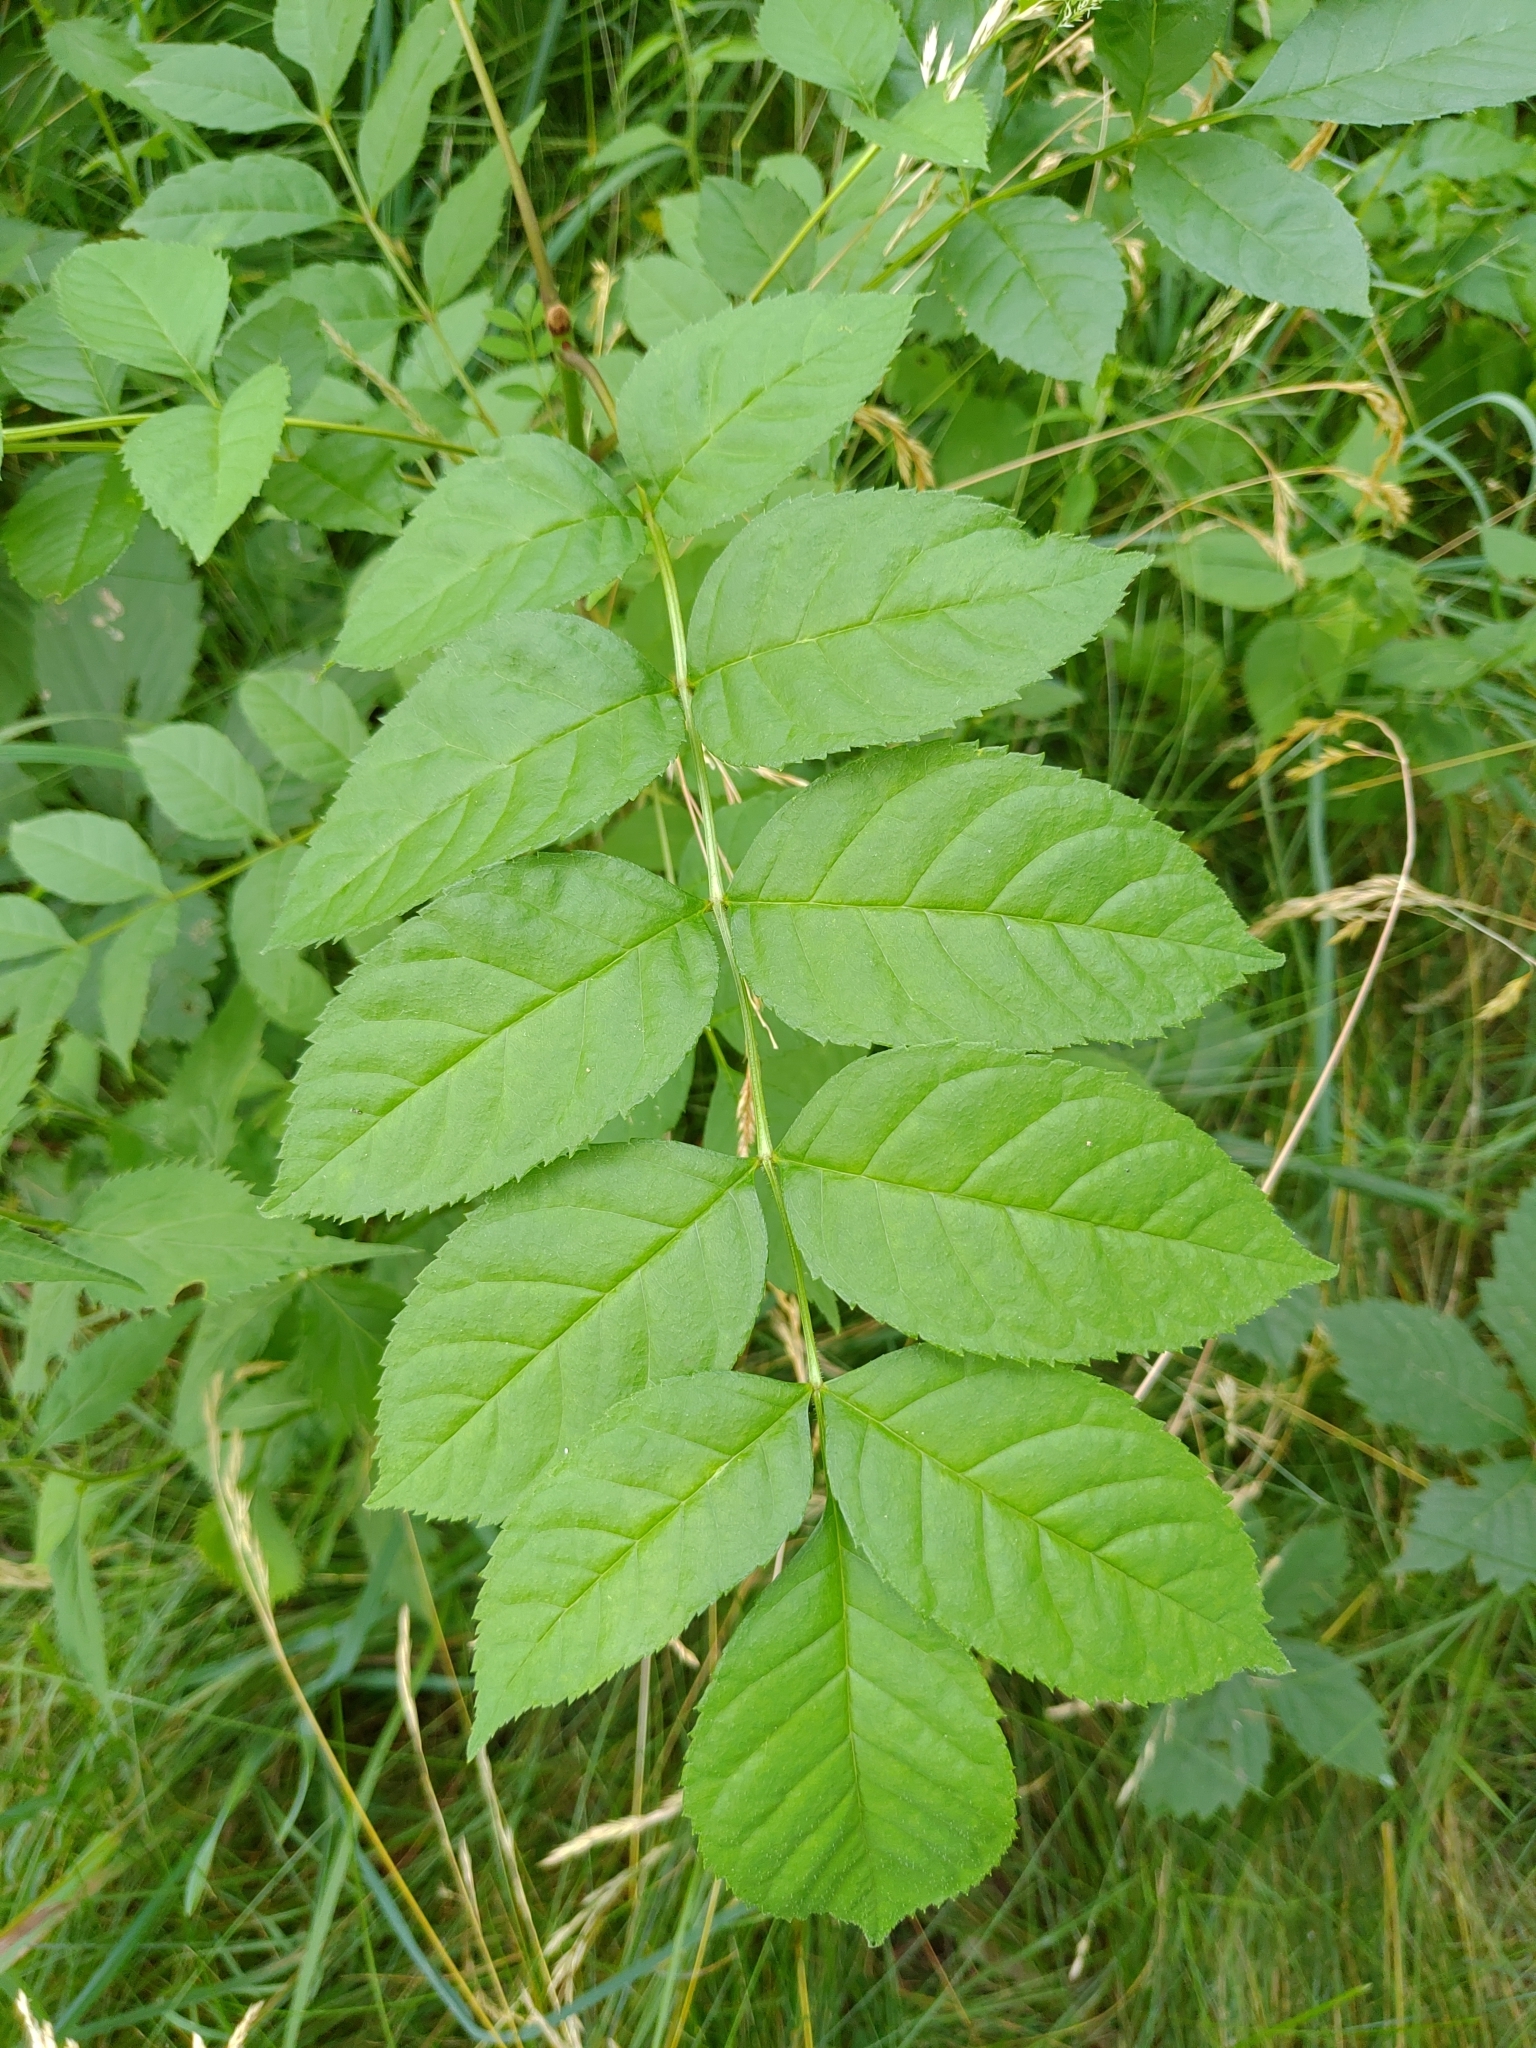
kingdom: Plantae
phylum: Tracheophyta
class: Magnoliopsida
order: Lamiales
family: Oleaceae
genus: Fraxinus
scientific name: Fraxinus excelsior
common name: European ash
